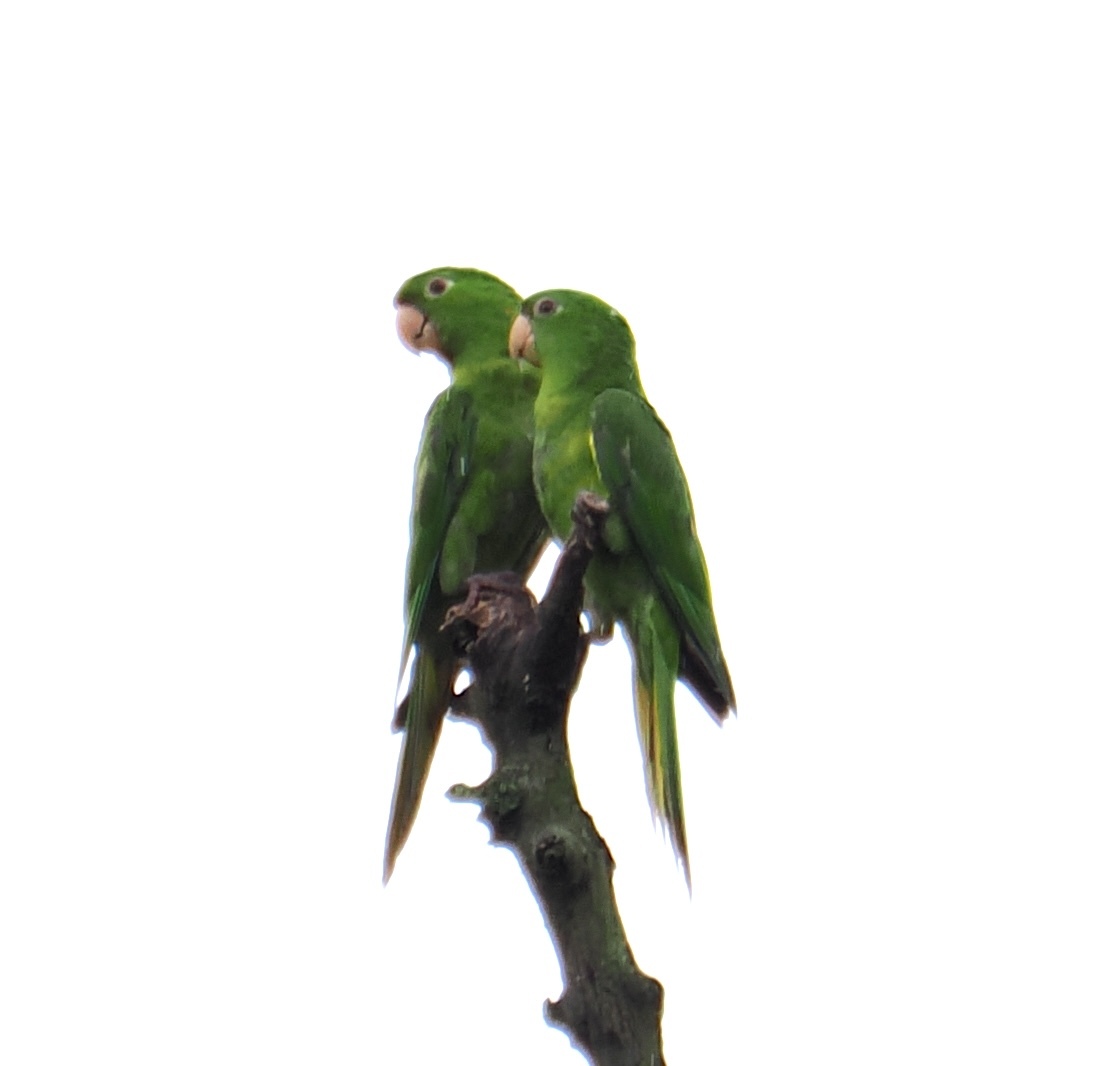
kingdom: Animalia
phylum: Chordata
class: Aves
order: Psittaciformes
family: Psittacidae
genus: Aratinga
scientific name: Aratinga leucophthalma
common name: White-eyed parakeet
